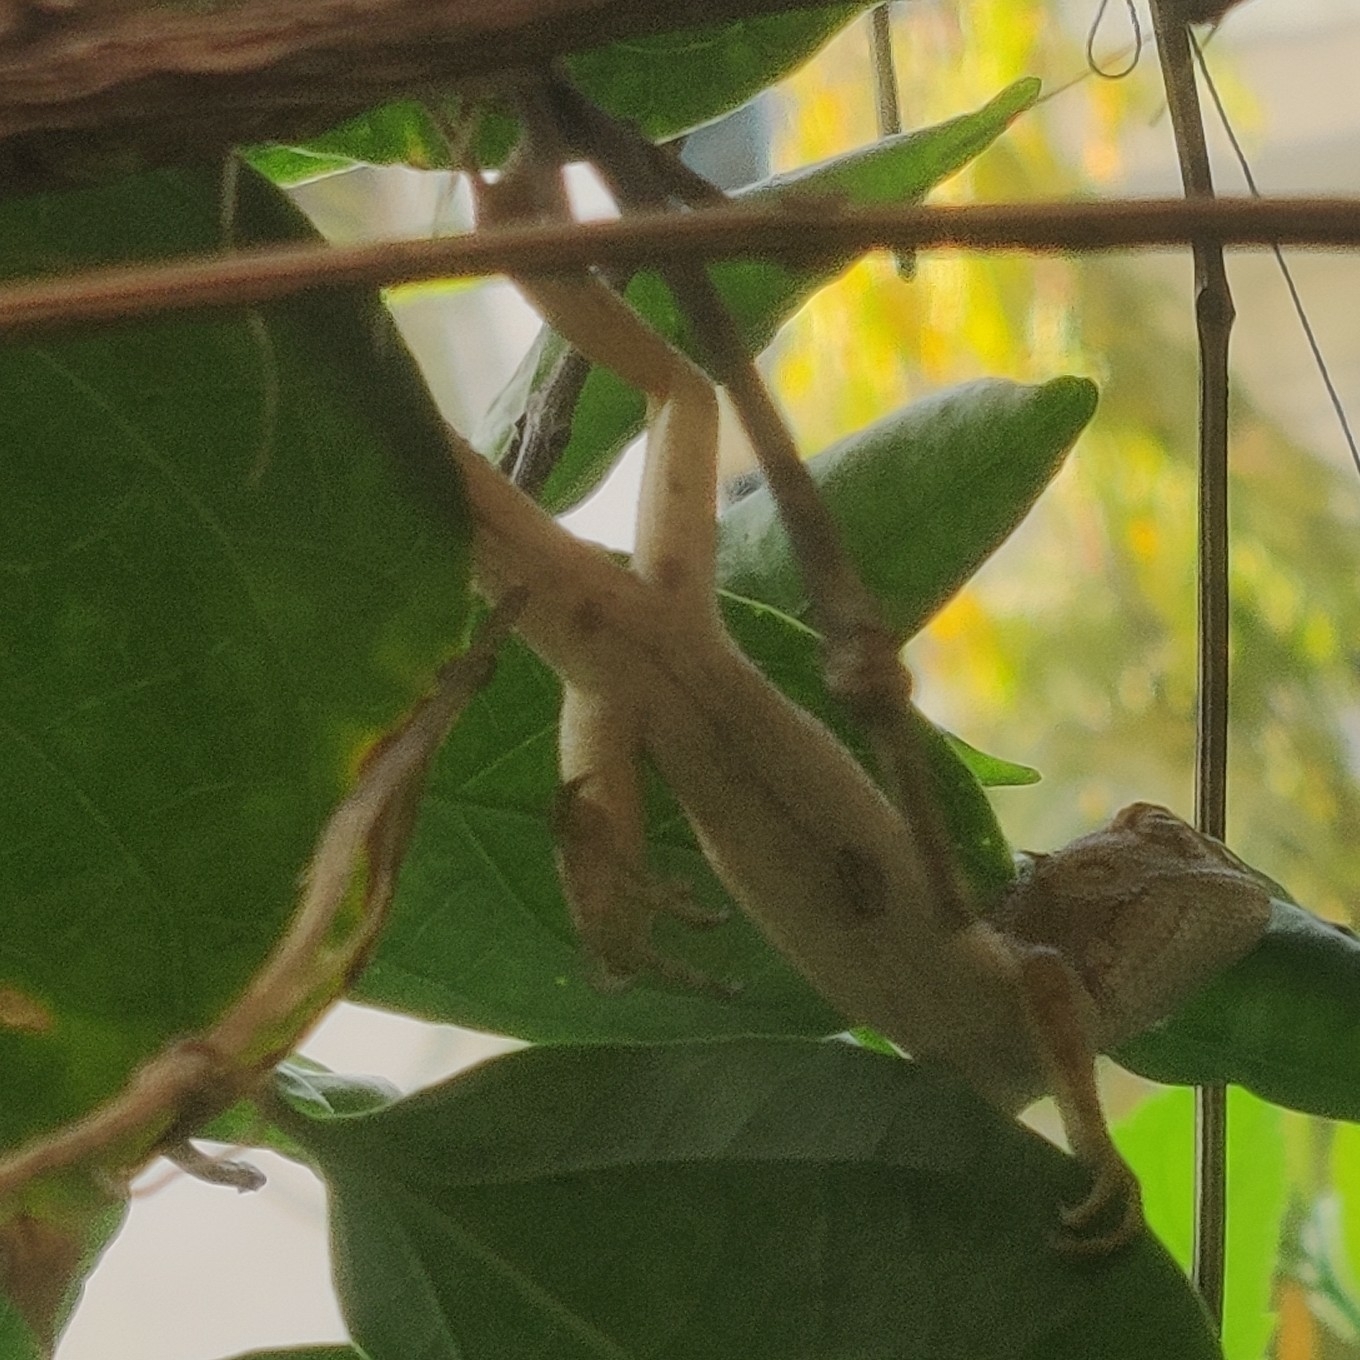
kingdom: Animalia
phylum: Chordata
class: Squamata
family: Agamidae
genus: Calotes
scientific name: Calotes versicolor
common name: Oriental garden lizard
